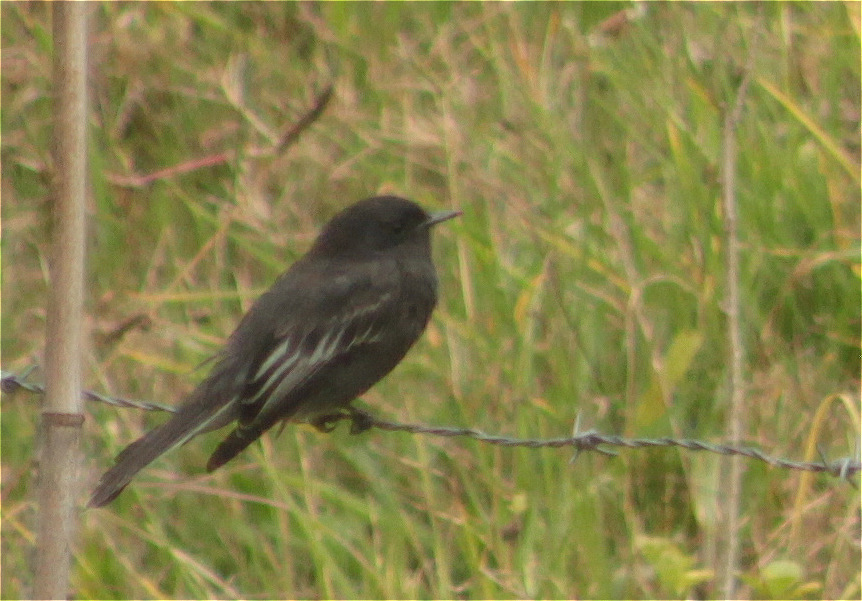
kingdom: Animalia
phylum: Chordata
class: Aves
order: Passeriformes
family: Tyrannidae
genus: Sayornis
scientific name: Sayornis nigricans
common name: Black phoebe
